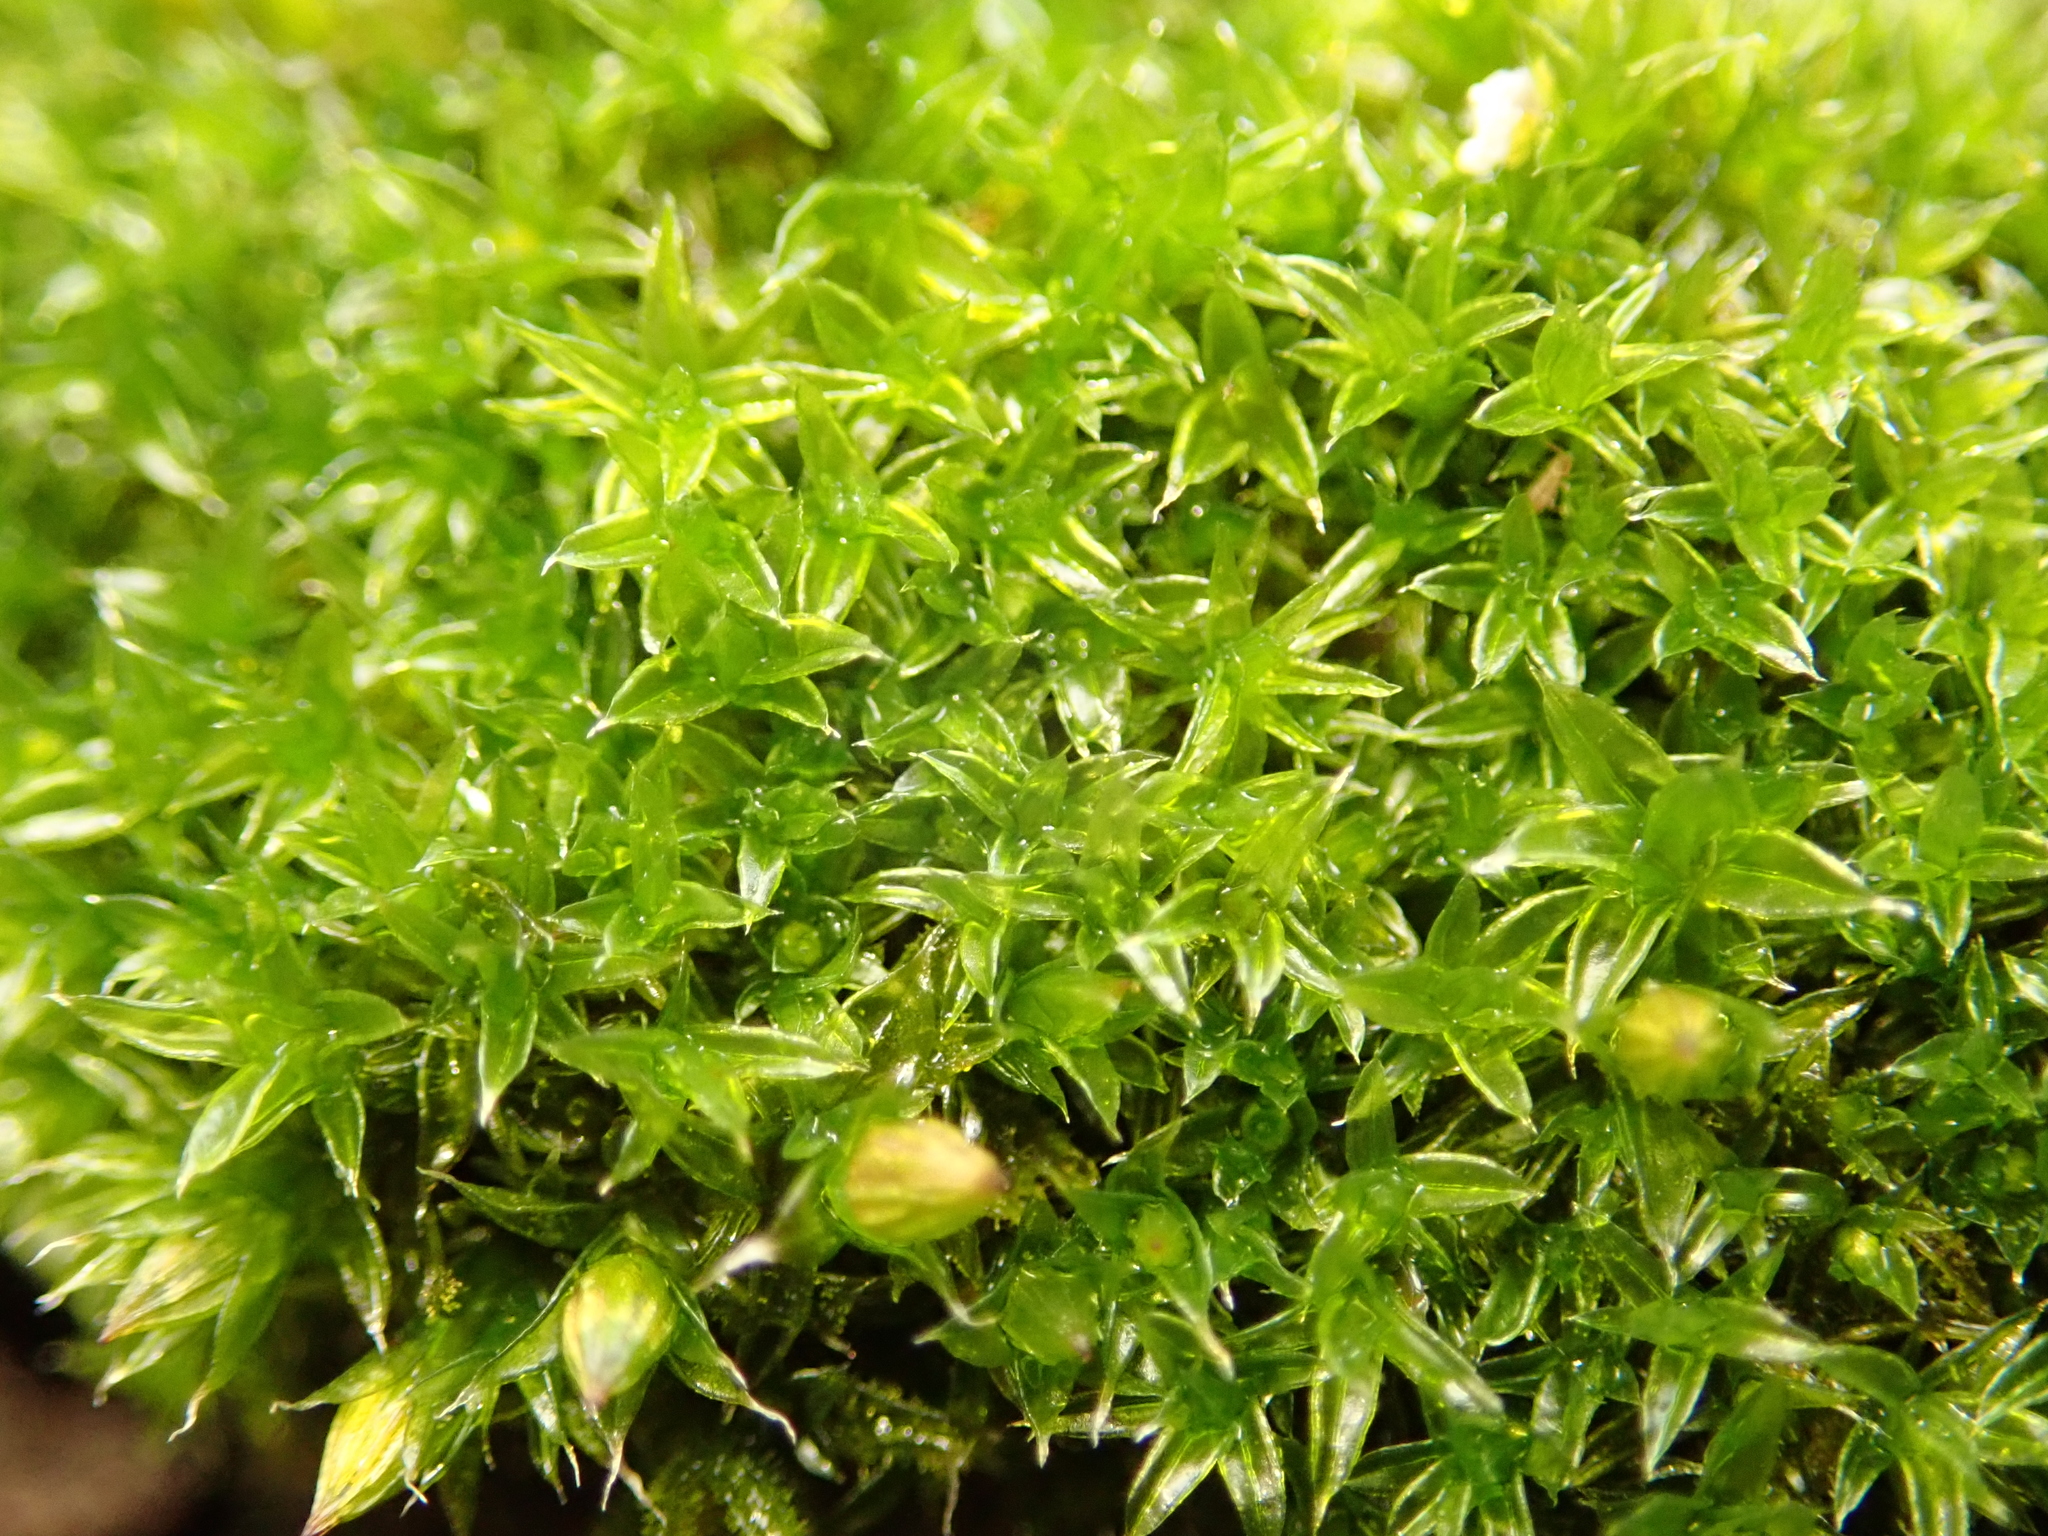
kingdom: Plantae
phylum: Bryophyta
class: Bryopsida
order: Orthotrichales
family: Orthotrichaceae
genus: Orthotrichum
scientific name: Orthotrichum diaphanum
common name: White-tipped bristle-moss
